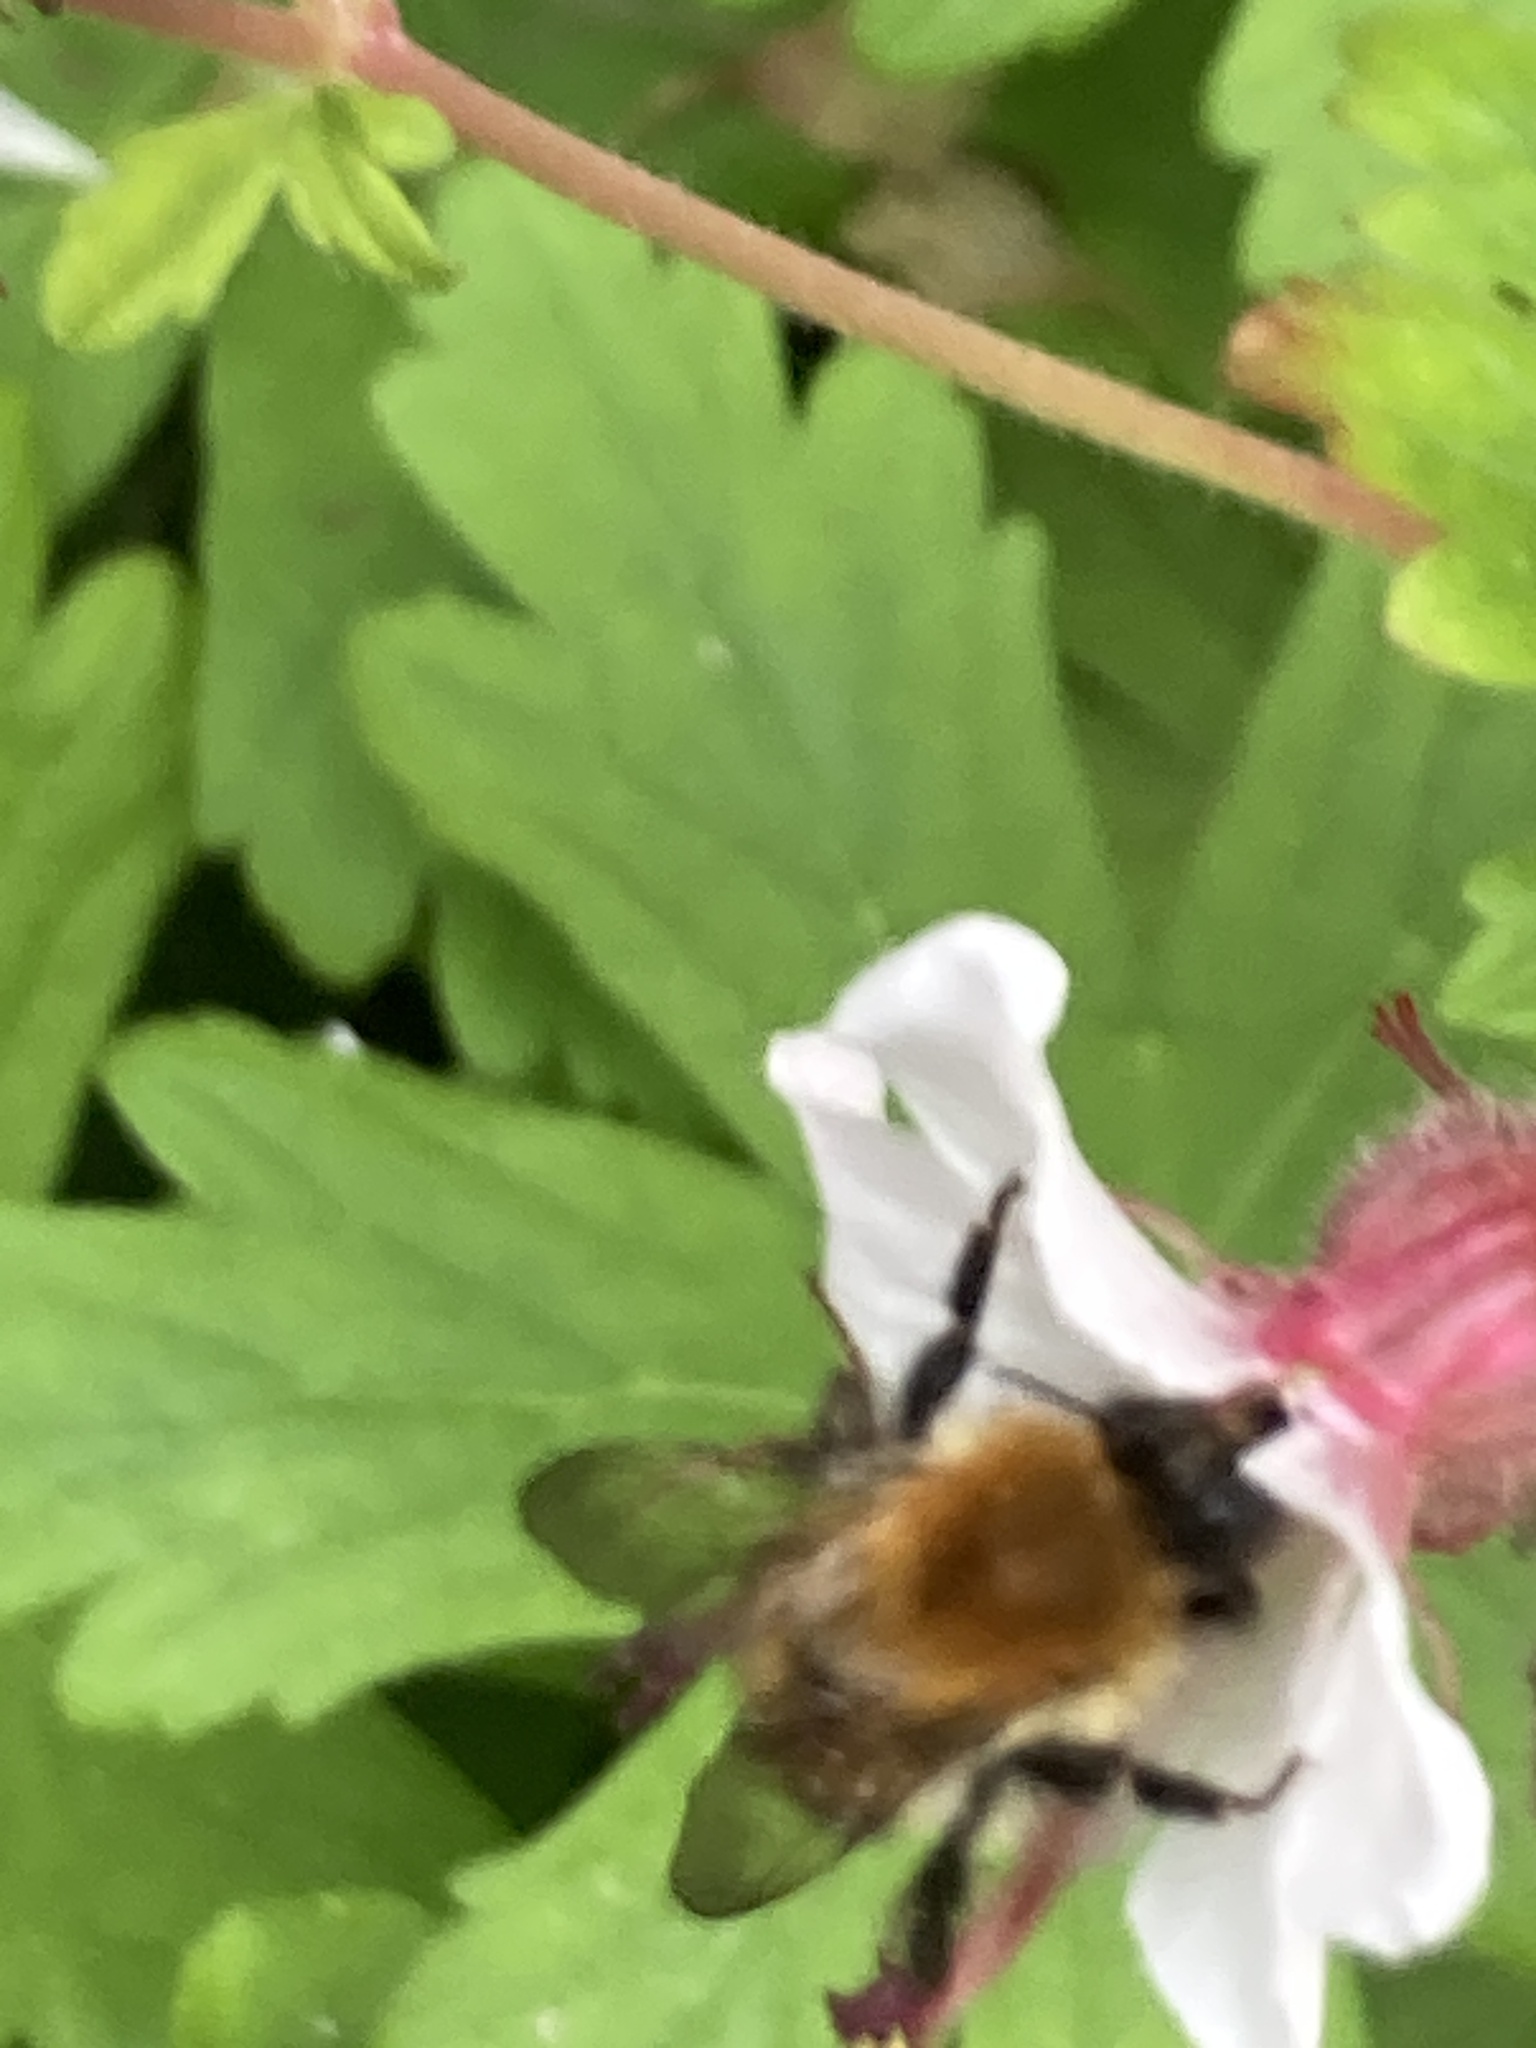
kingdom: Animalia
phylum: Arthropoda
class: Insecta
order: Hymenoptera
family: Apidae
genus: Bombus
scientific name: Bombus pascuorum
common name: Common carder bee
